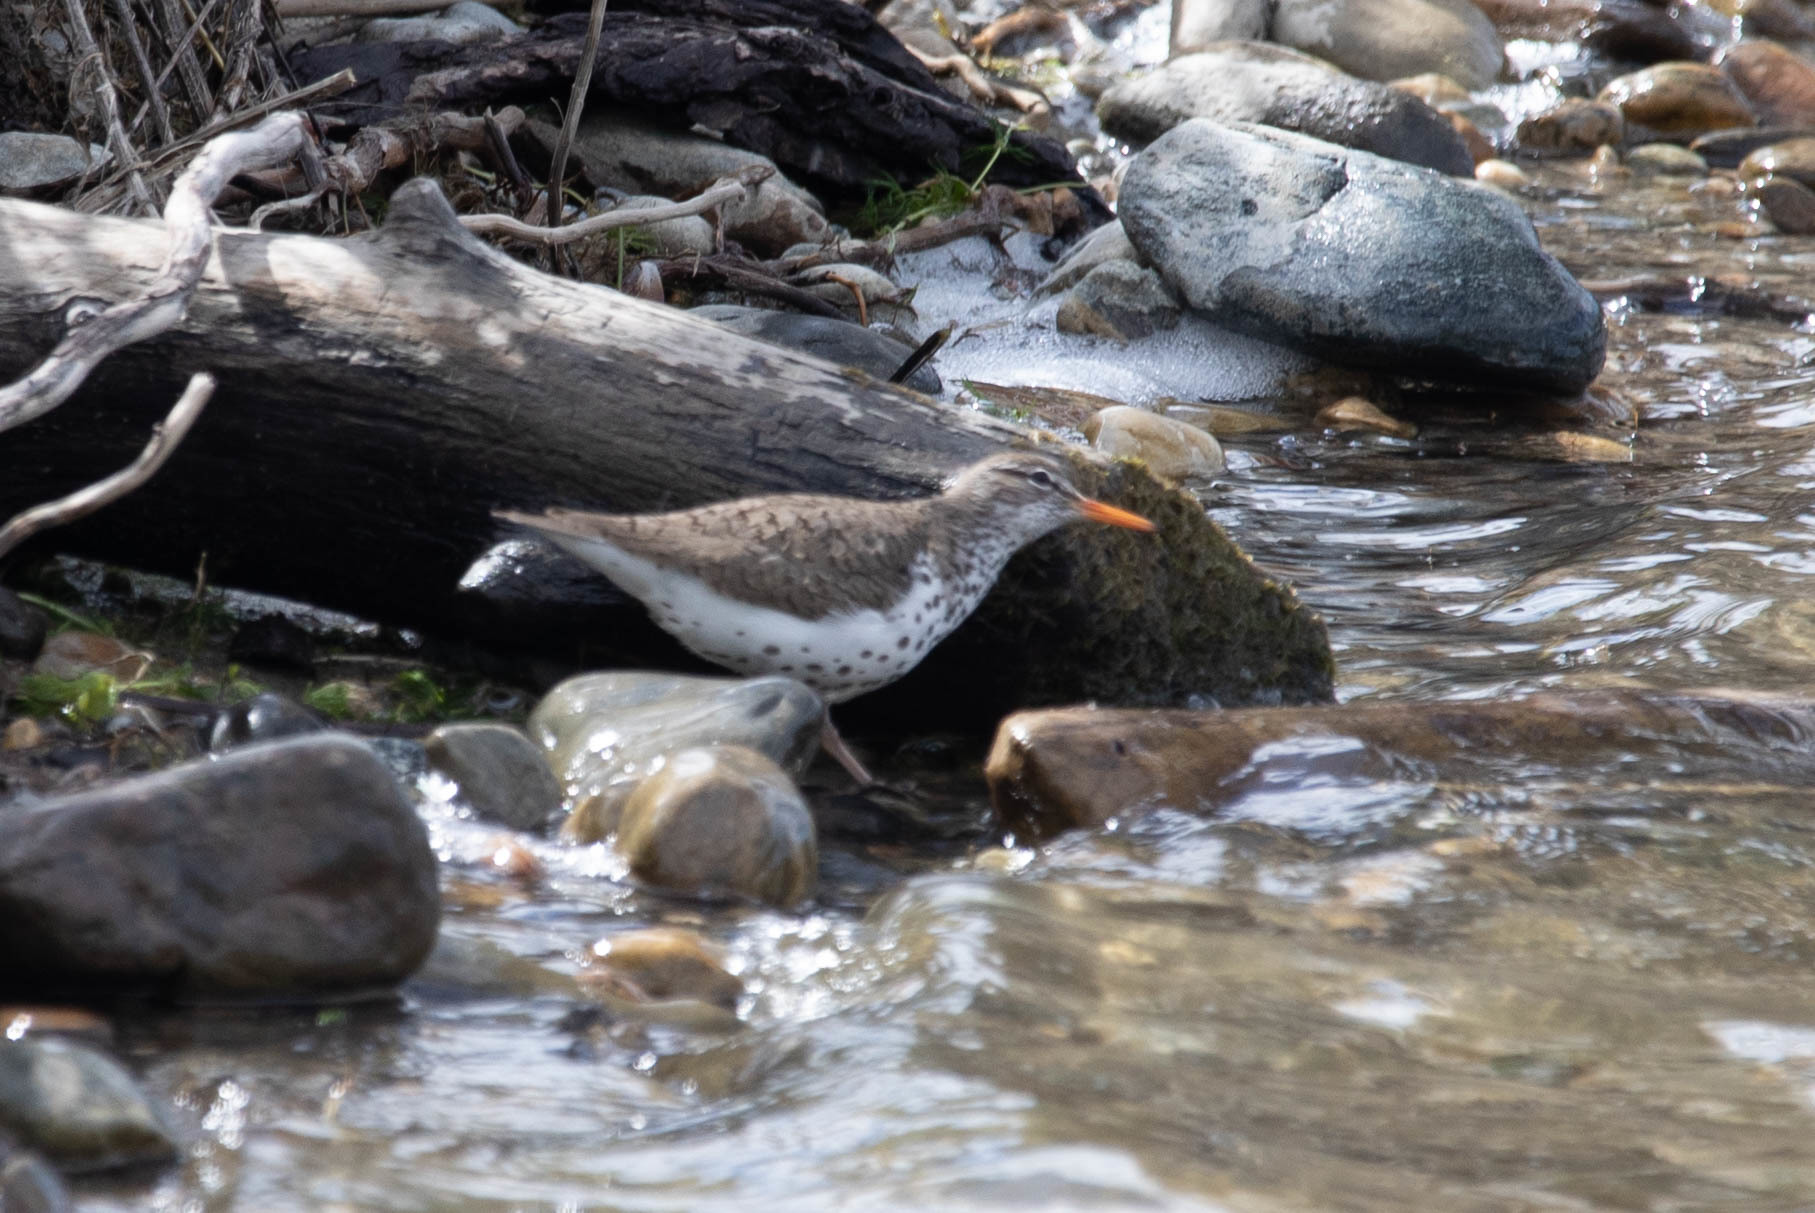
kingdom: Animalia
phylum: Chordata
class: Aves
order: Charadriiformes
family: Scolopacidae
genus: Actitis
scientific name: Actitis macularius
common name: Spotted sandpiper
